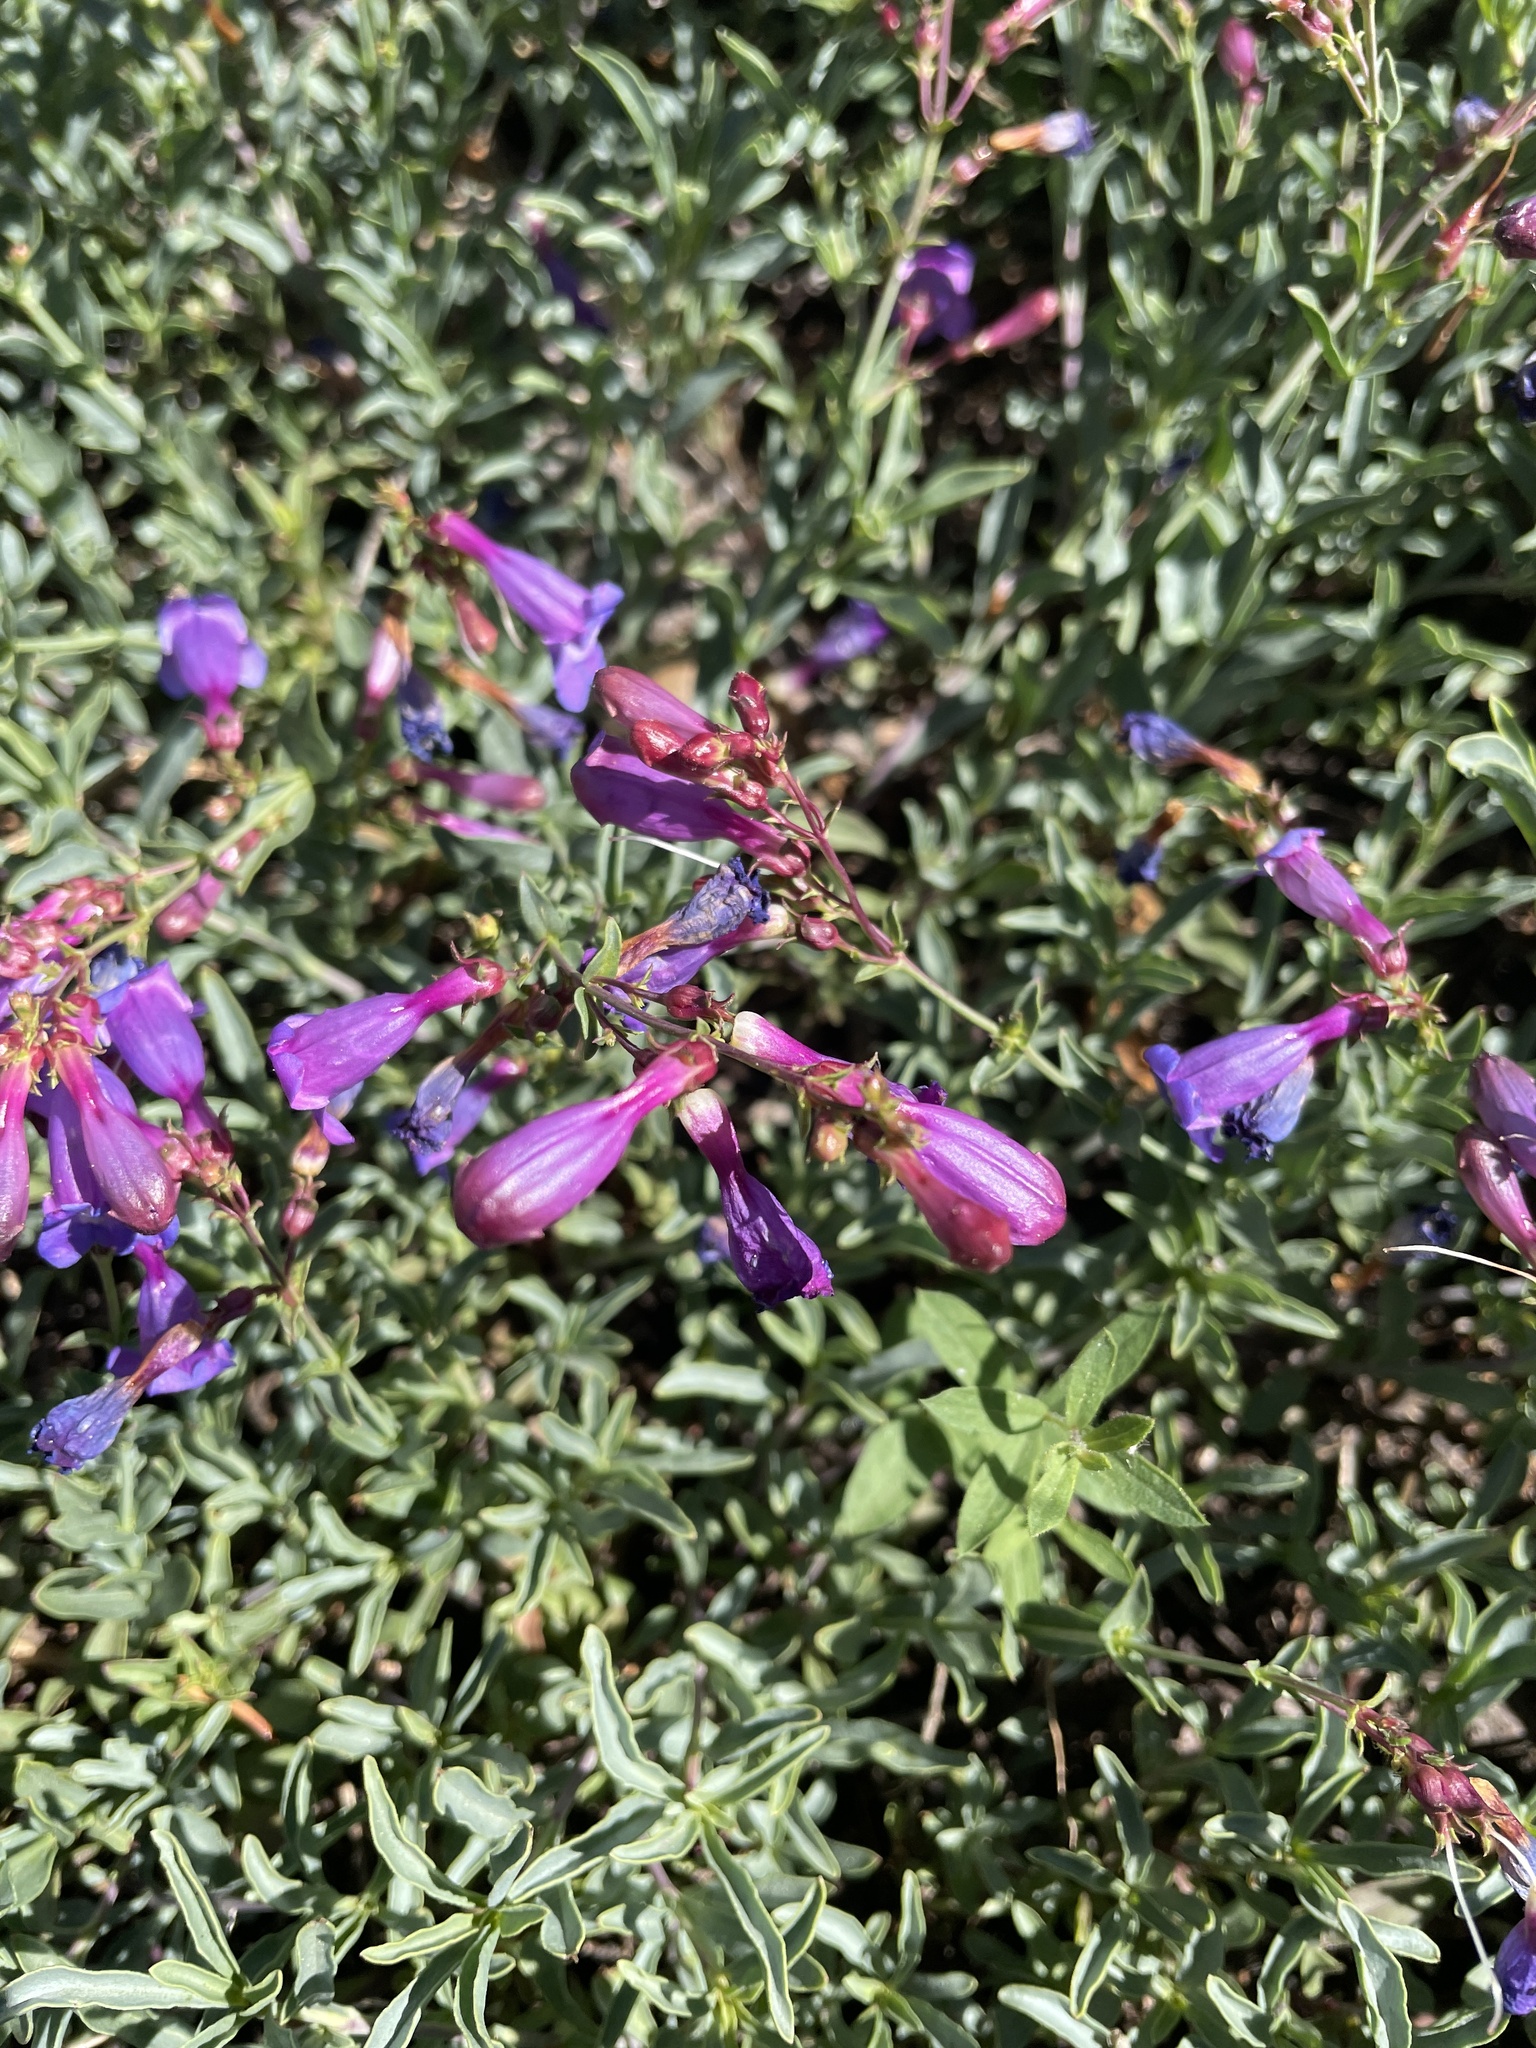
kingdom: Plantae
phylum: Tracheophyta
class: Magnoliopsida
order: Lamiales
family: Plantaginaceae
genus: Penstemon
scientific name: Penstemon azureus
